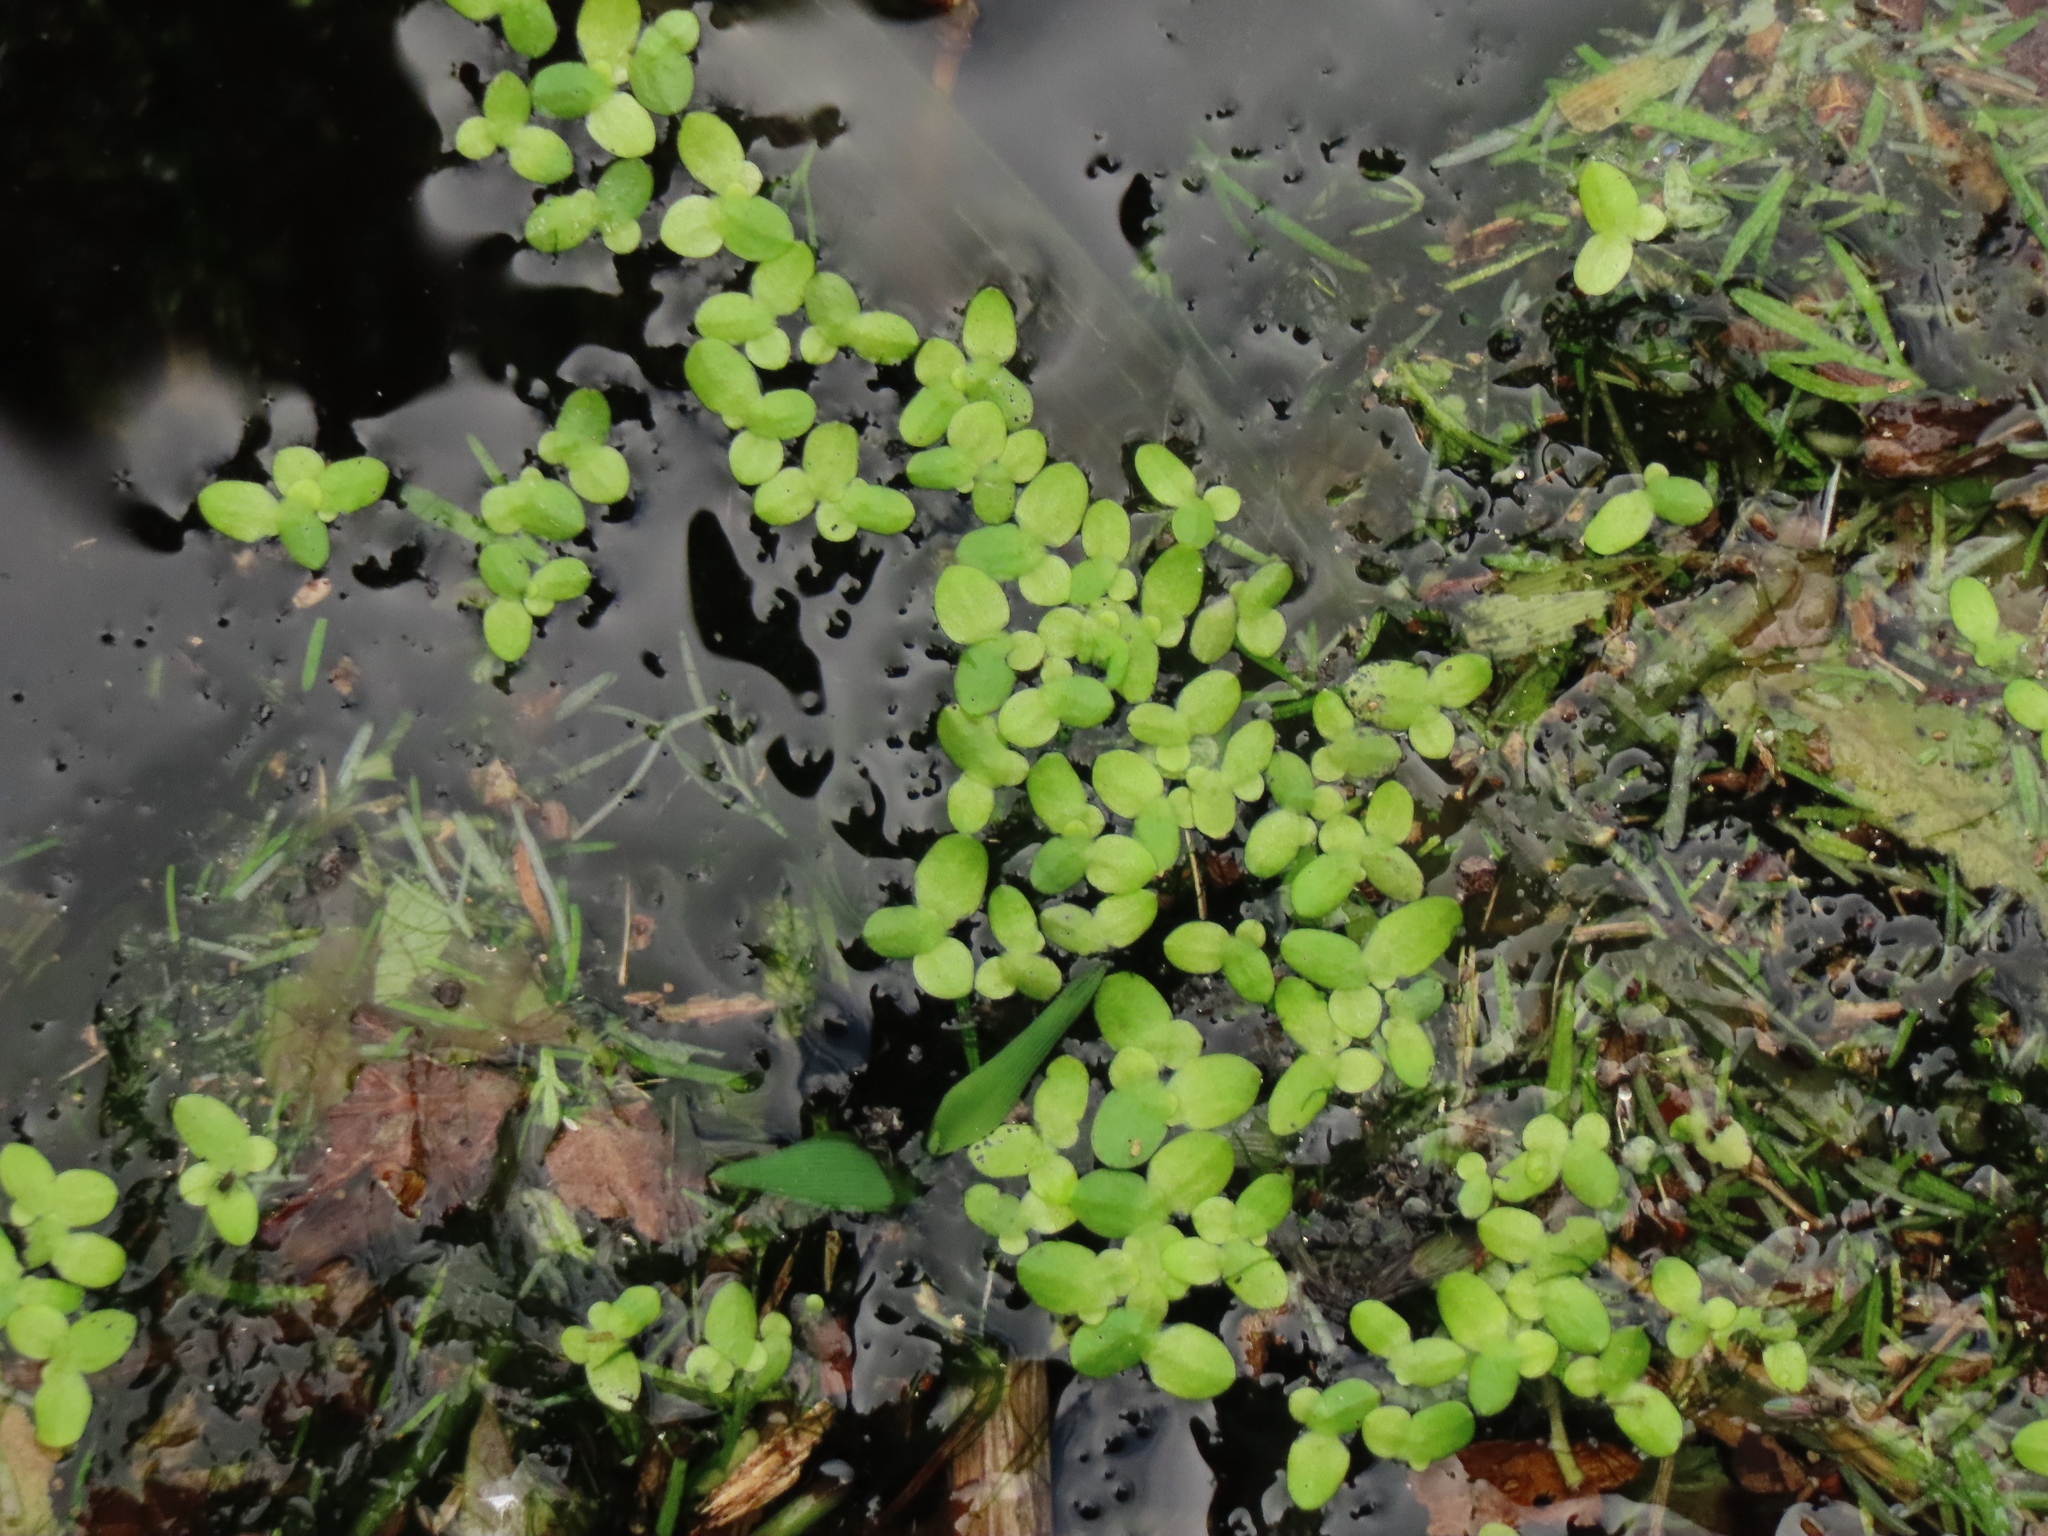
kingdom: Plantae
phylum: Tracheophyta
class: Liliopsida
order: Alismatales
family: Araceae
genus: Lemna
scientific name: Lemna aequinoctialis
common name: Duckweed
